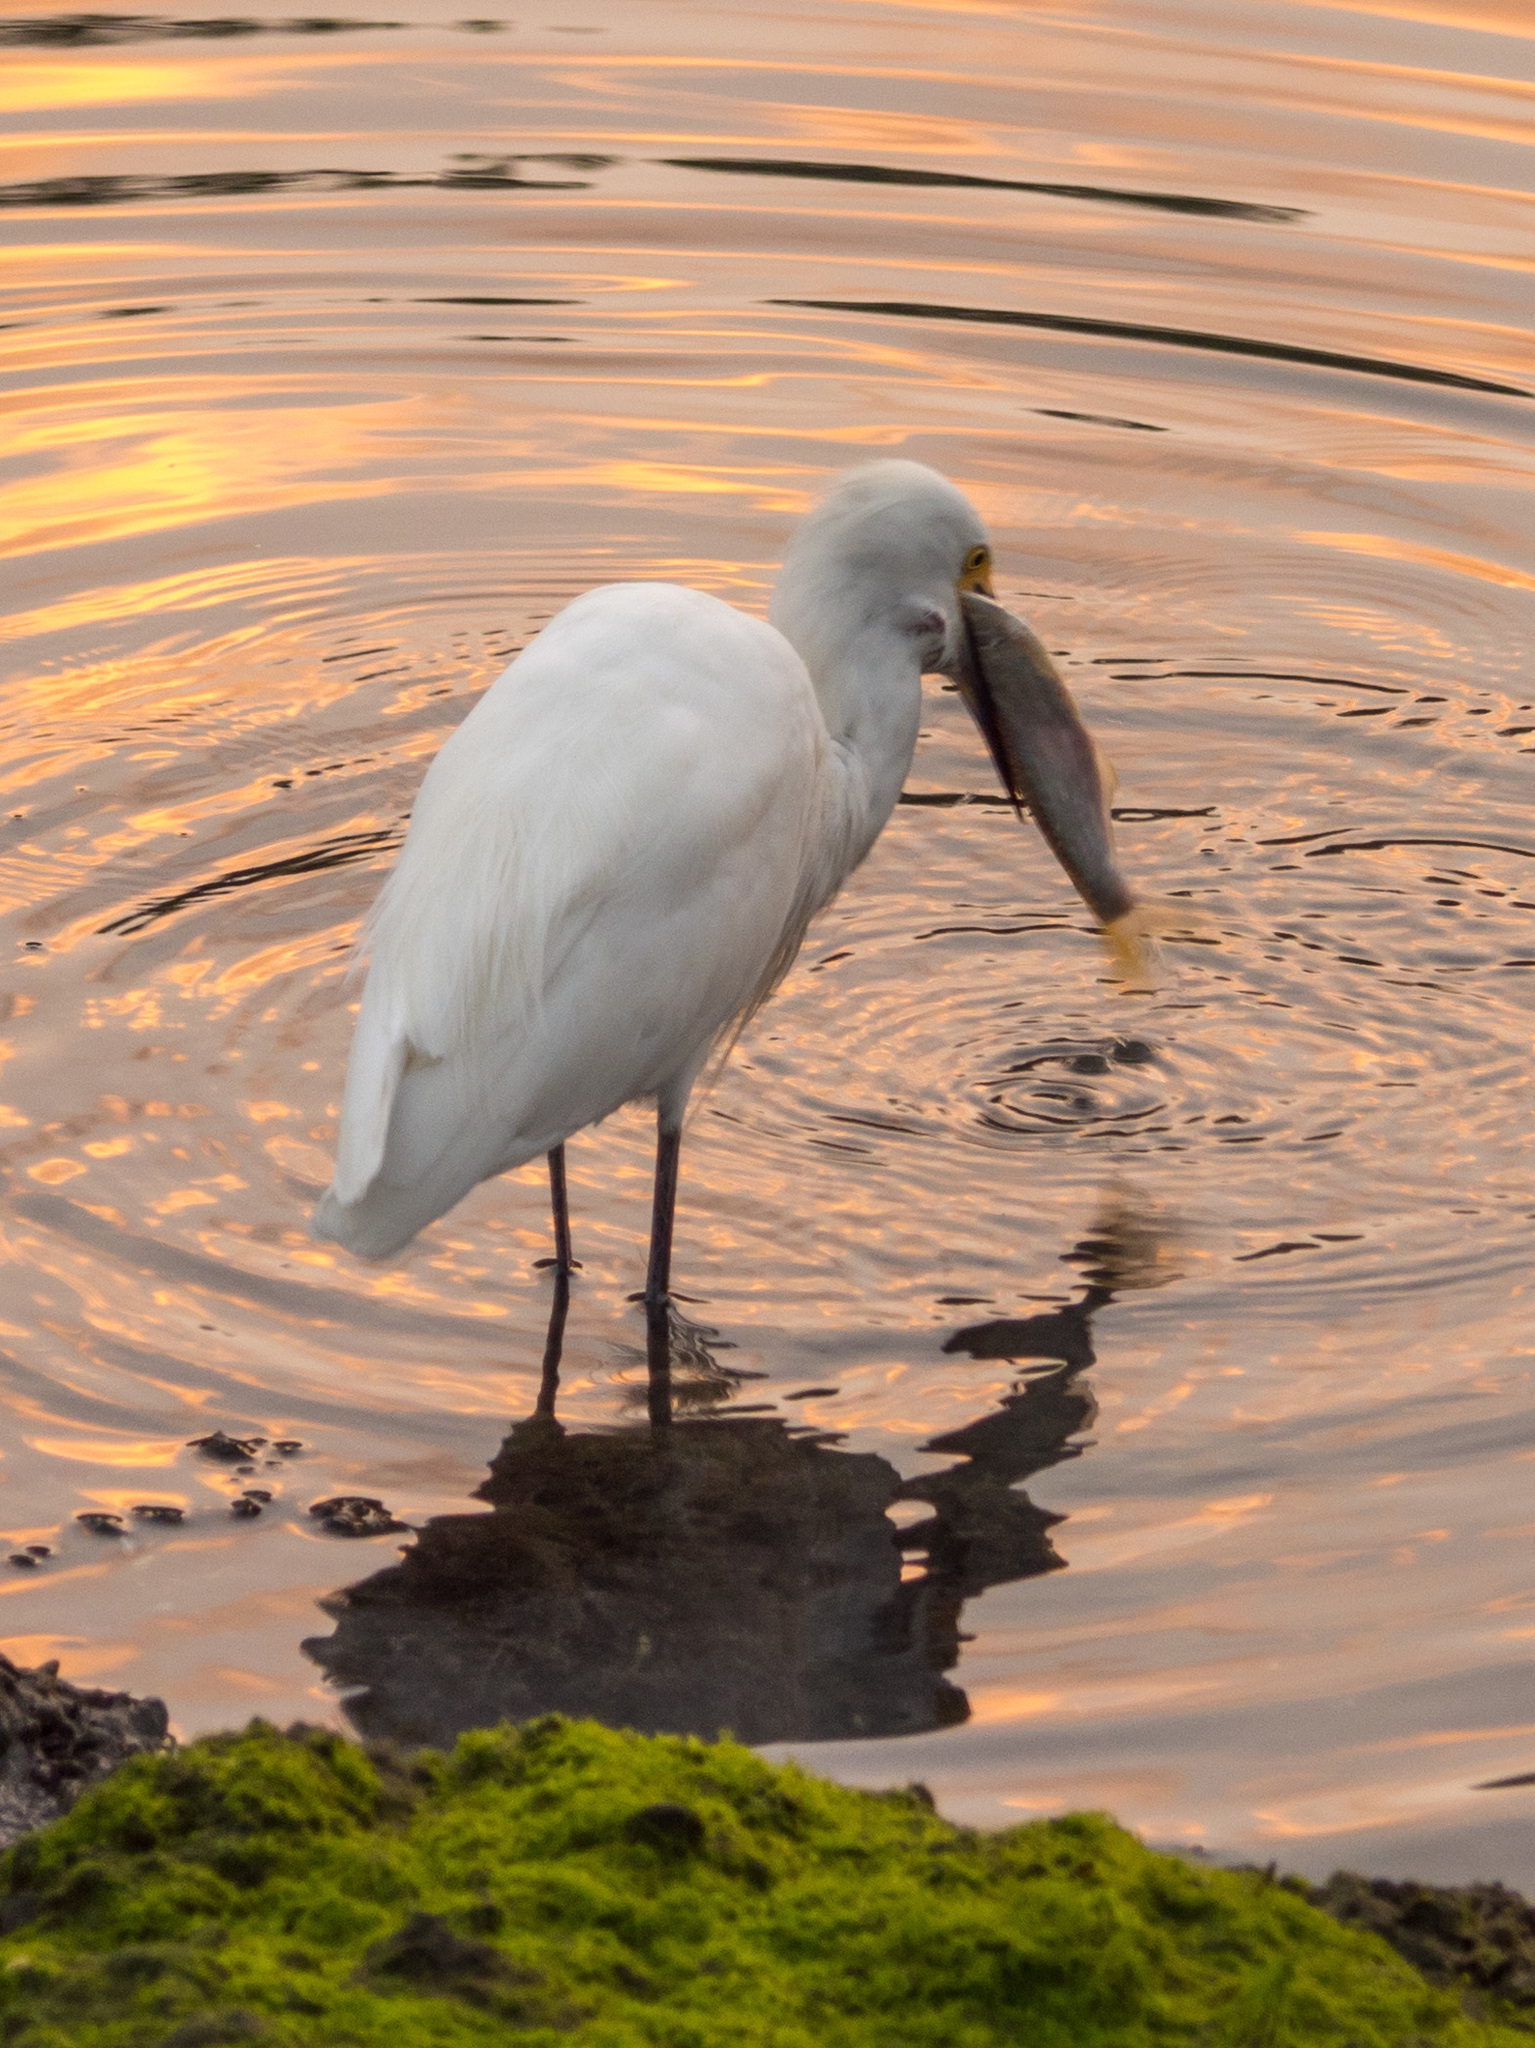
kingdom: Animalia
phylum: Chordata
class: Aves
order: Pelecaniformes
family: Ardeidae
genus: Egretta
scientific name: Egretta thula
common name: Snowy egret
